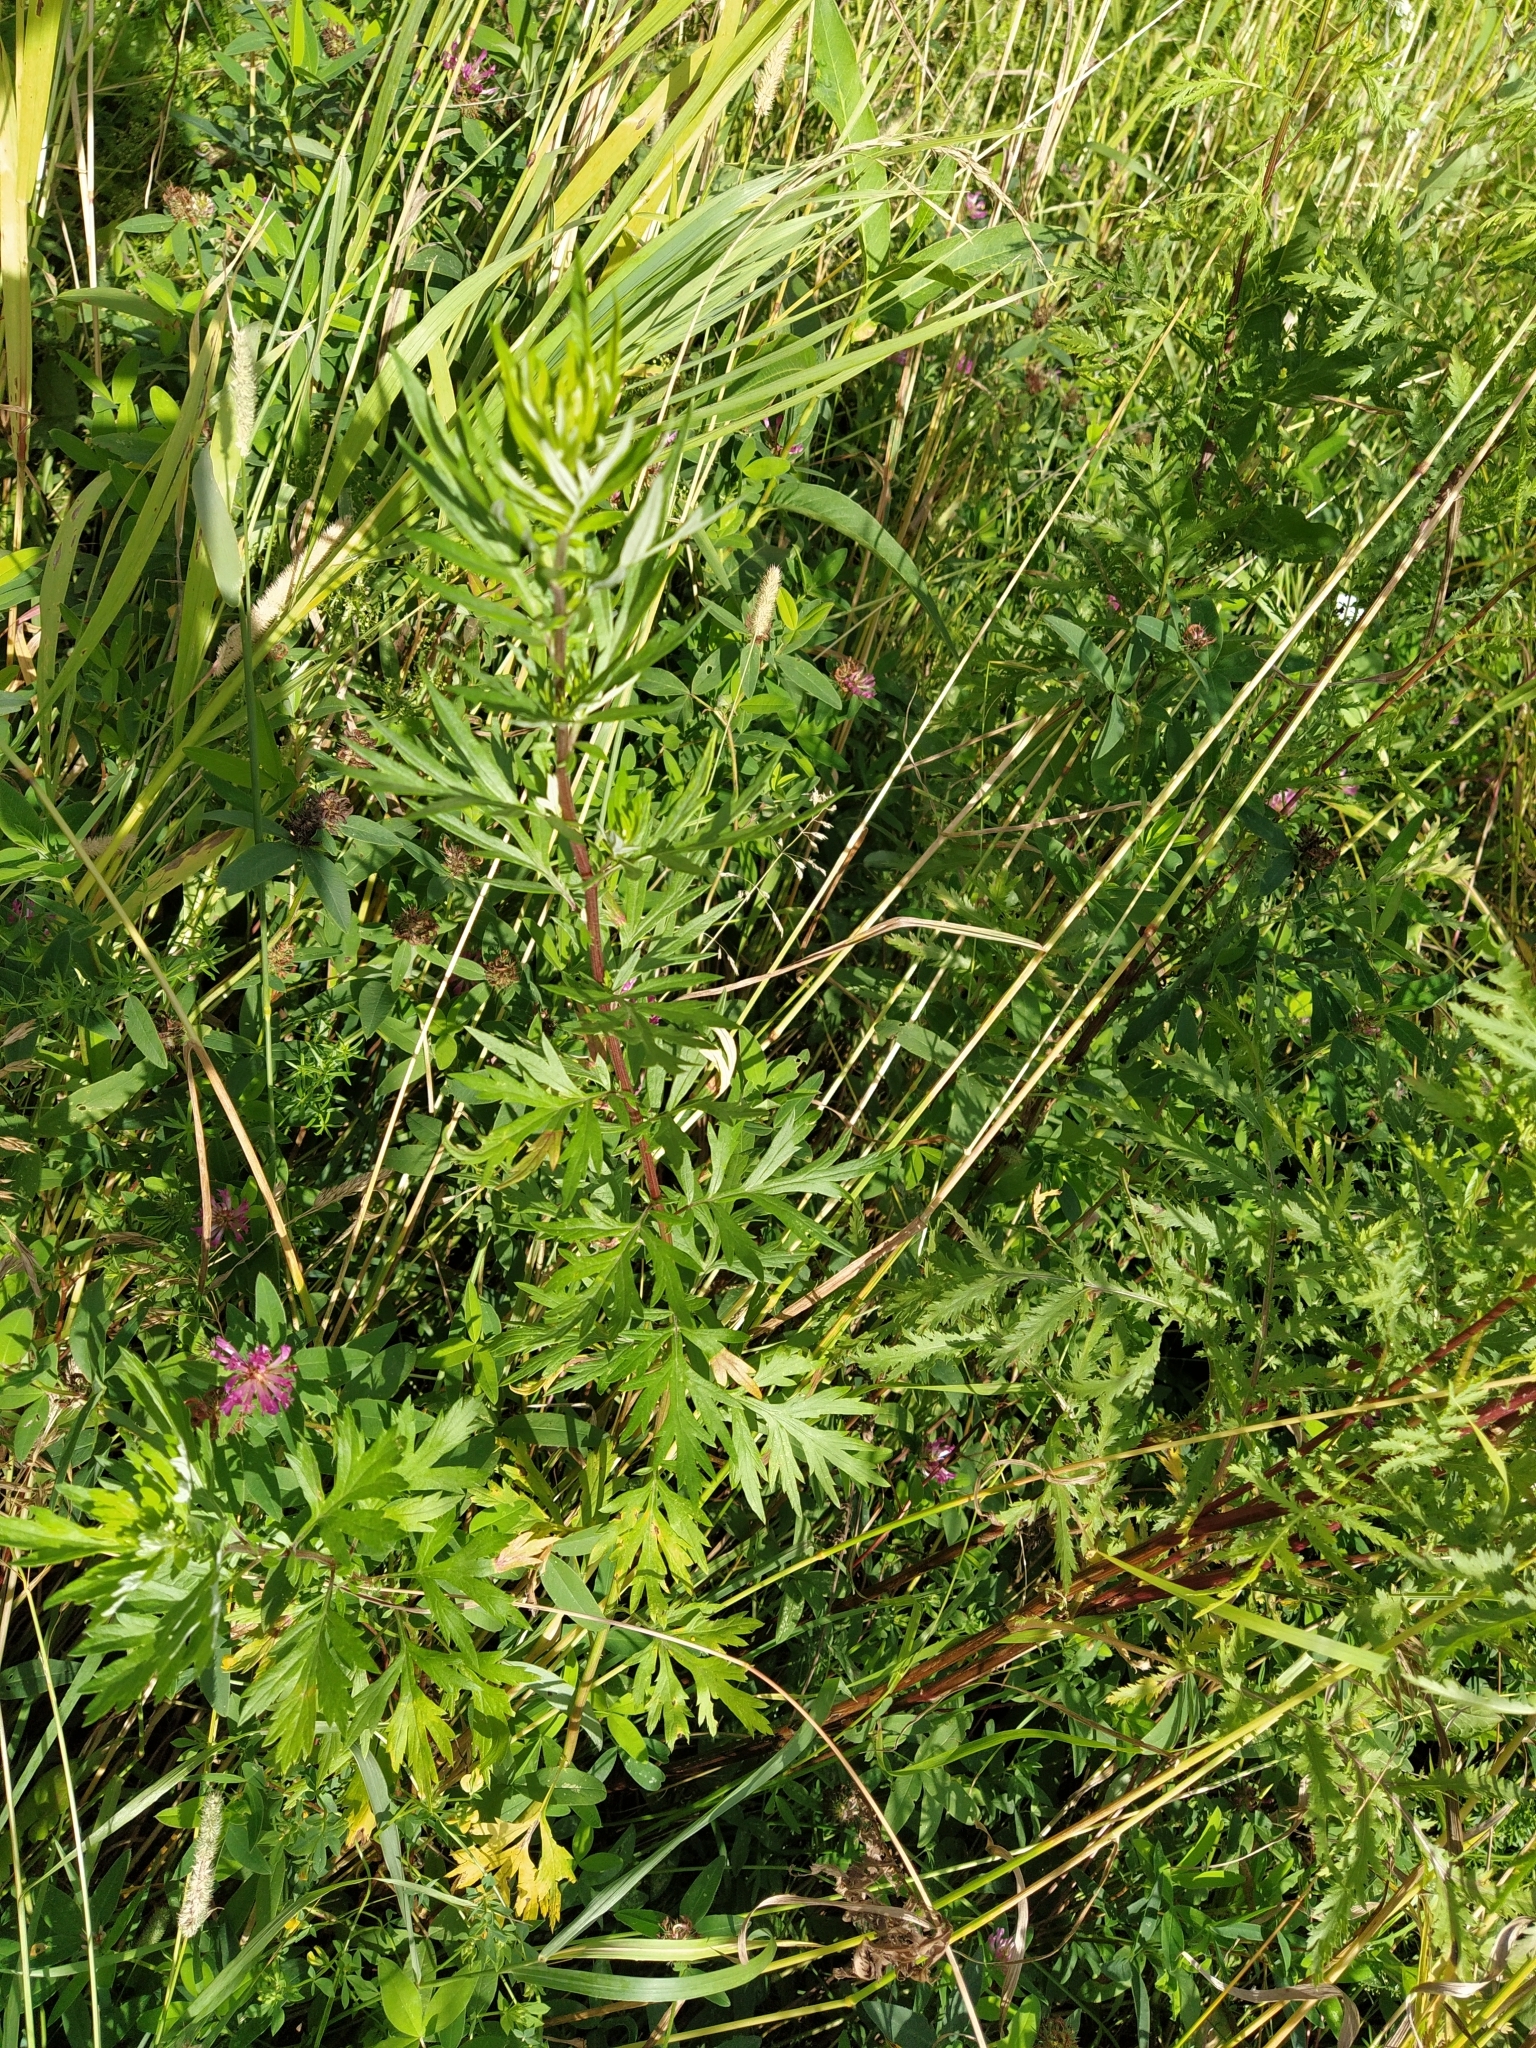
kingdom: Plantae
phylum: Tracheophyta
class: Magnoliopsida
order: Asterales
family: Asteraceae
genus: Artemisia
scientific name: Artemisia vulgaris
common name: Mugwort
